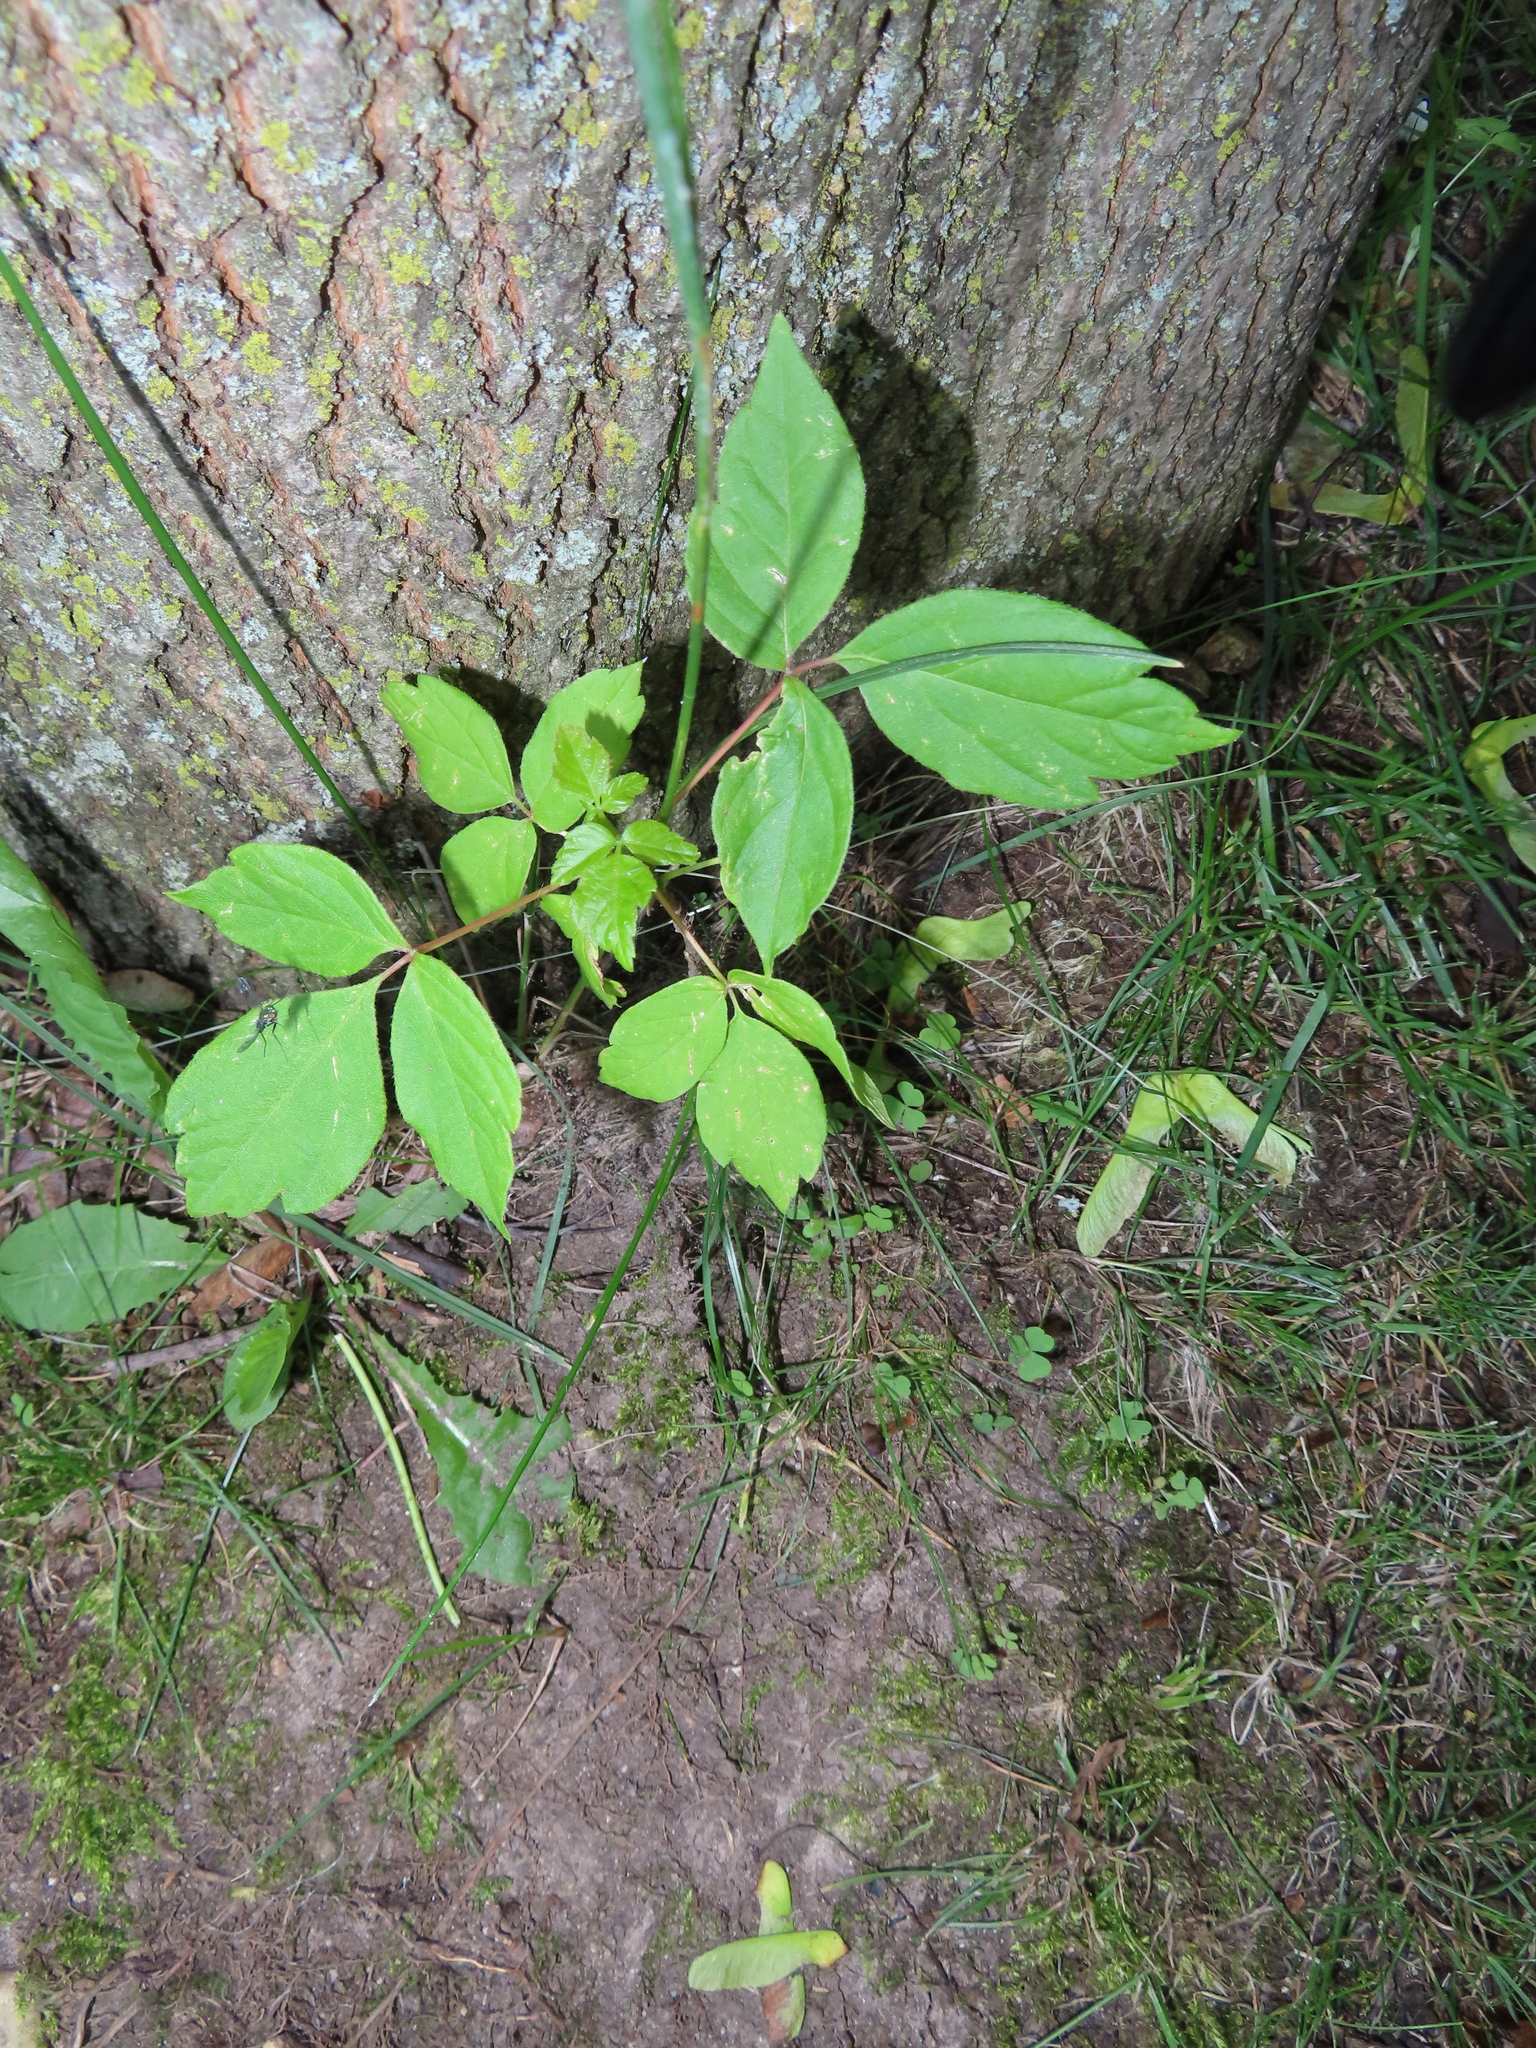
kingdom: Plantae
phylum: Tracheophyta
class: Magnoliopsida
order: Sapindales
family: Sapindaceae
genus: Acer
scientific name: Acer negundo
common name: Ashleaf maple
